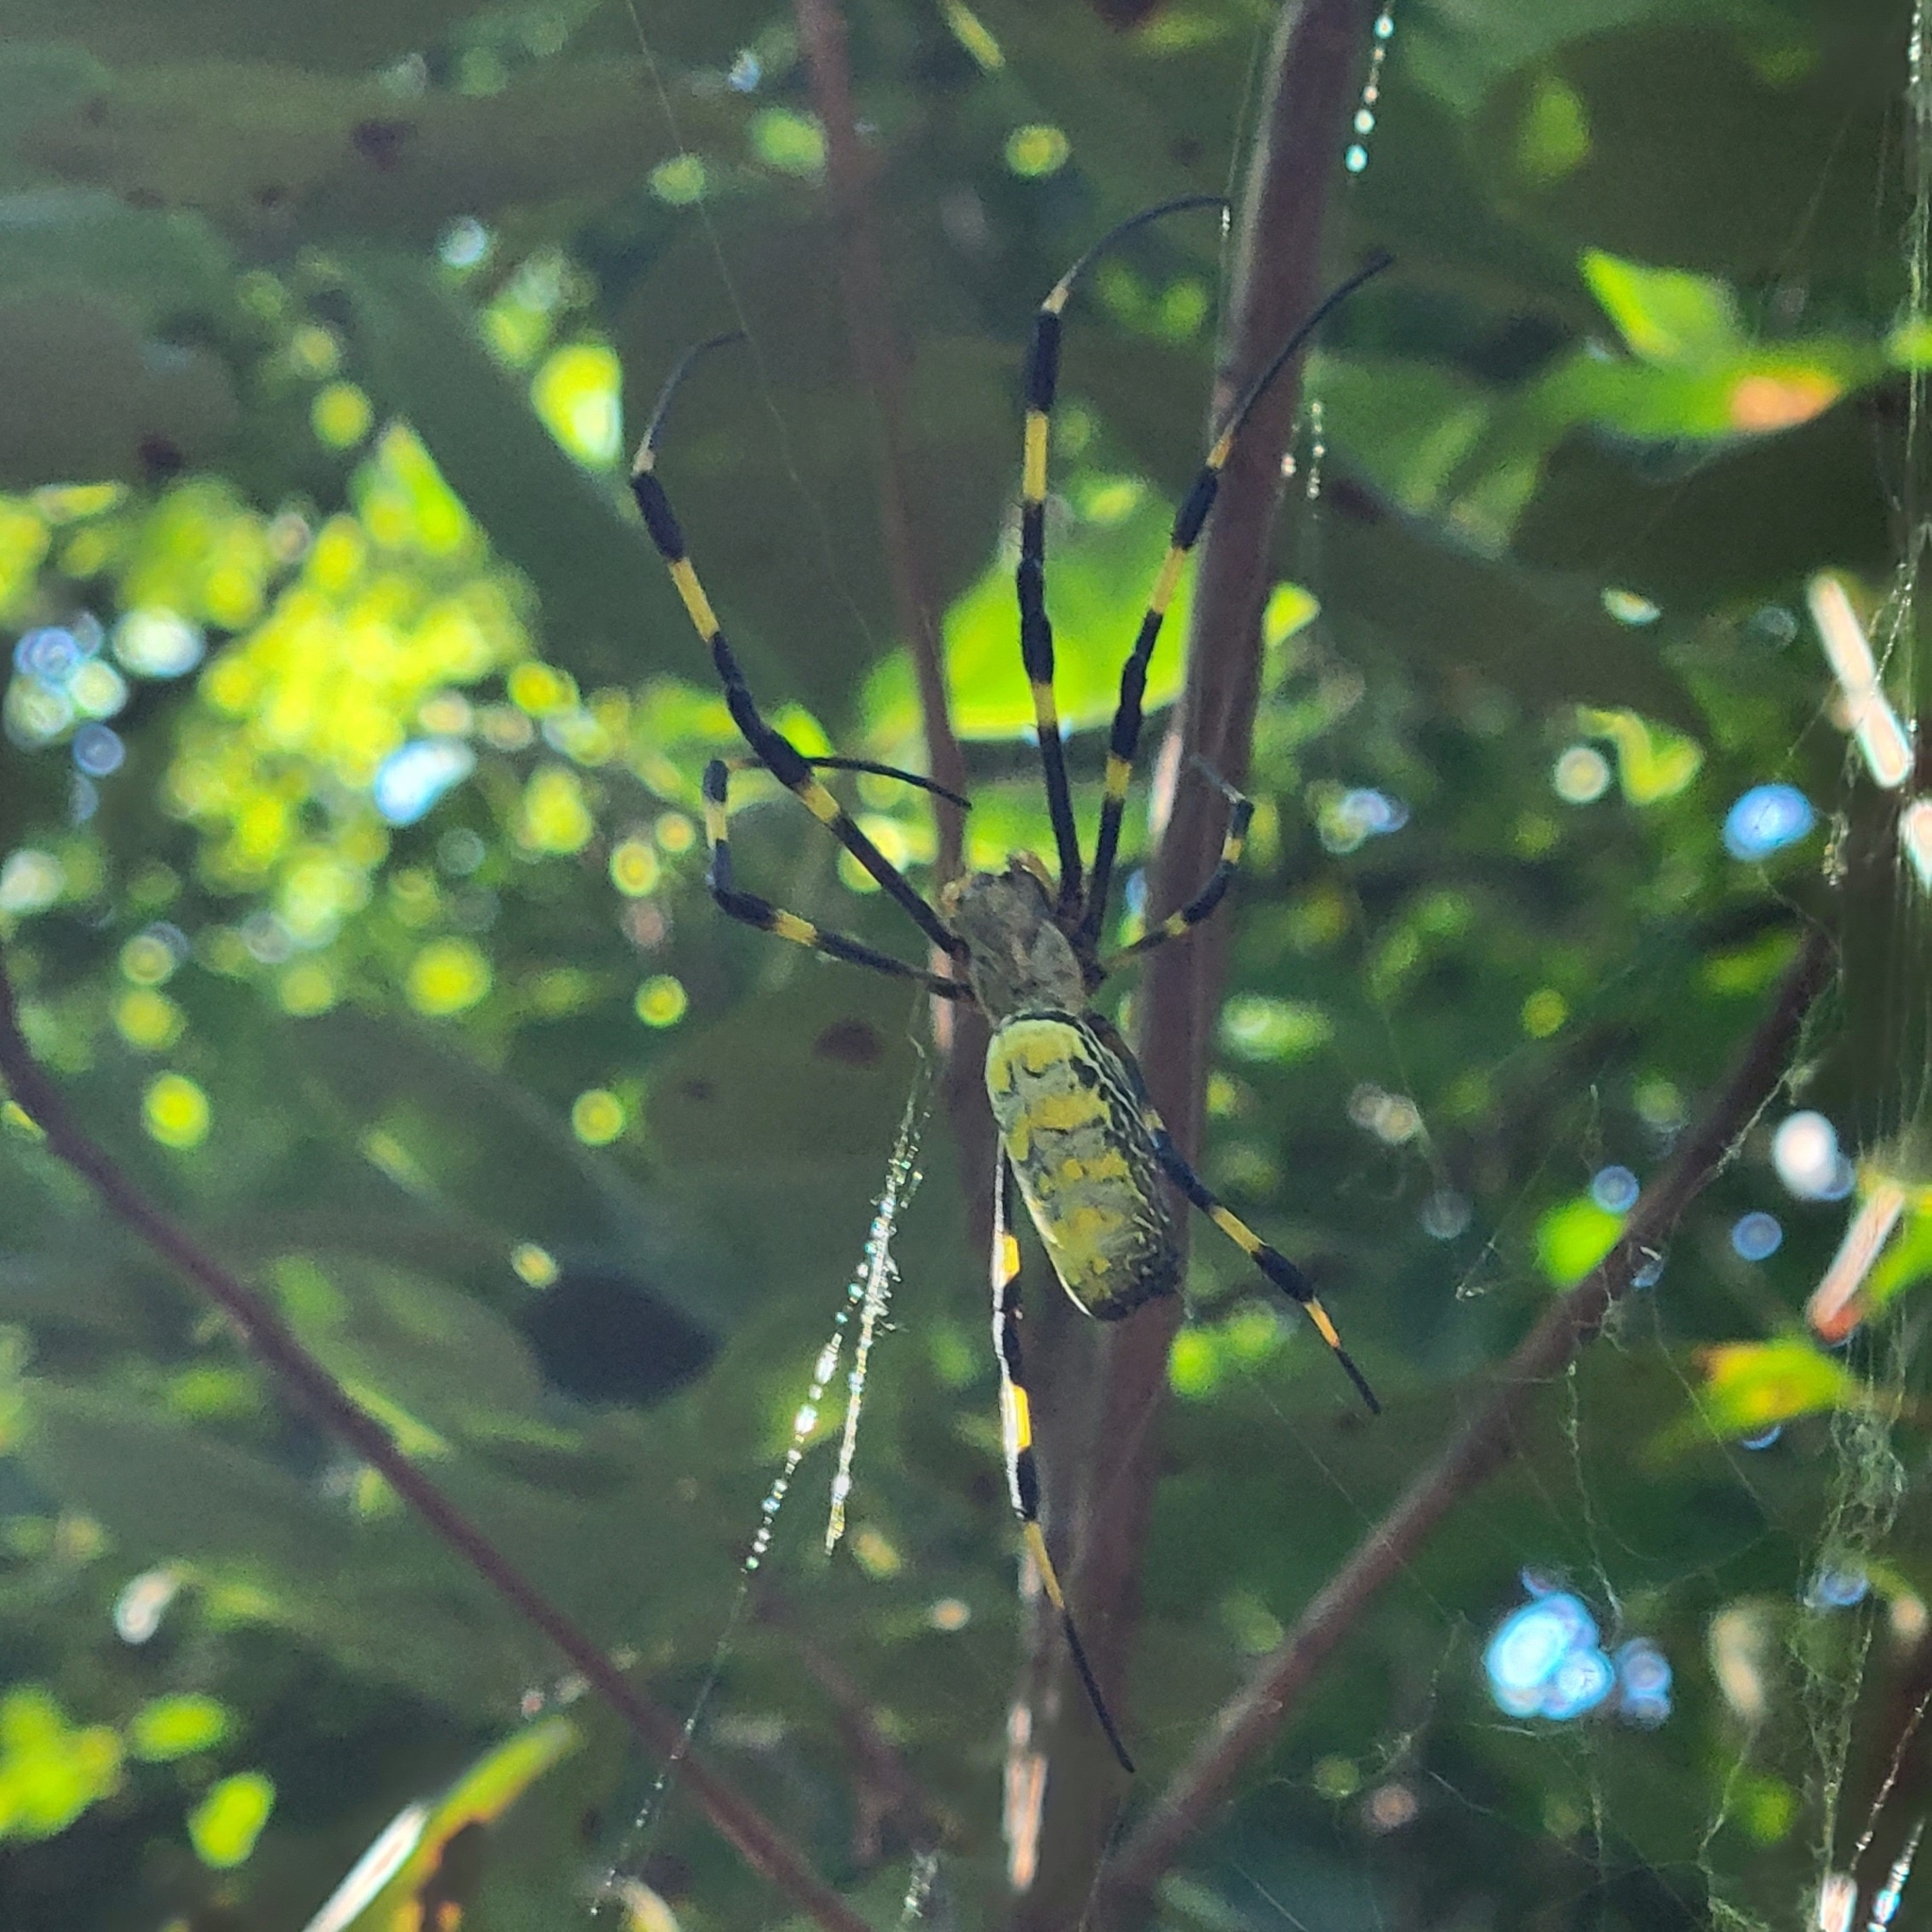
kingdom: Animalia
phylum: Arthropoda
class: Arachnida
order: Araneae
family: Araneidae
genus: Trichonephila
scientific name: Trichonephila clavata
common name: Jorō spider
